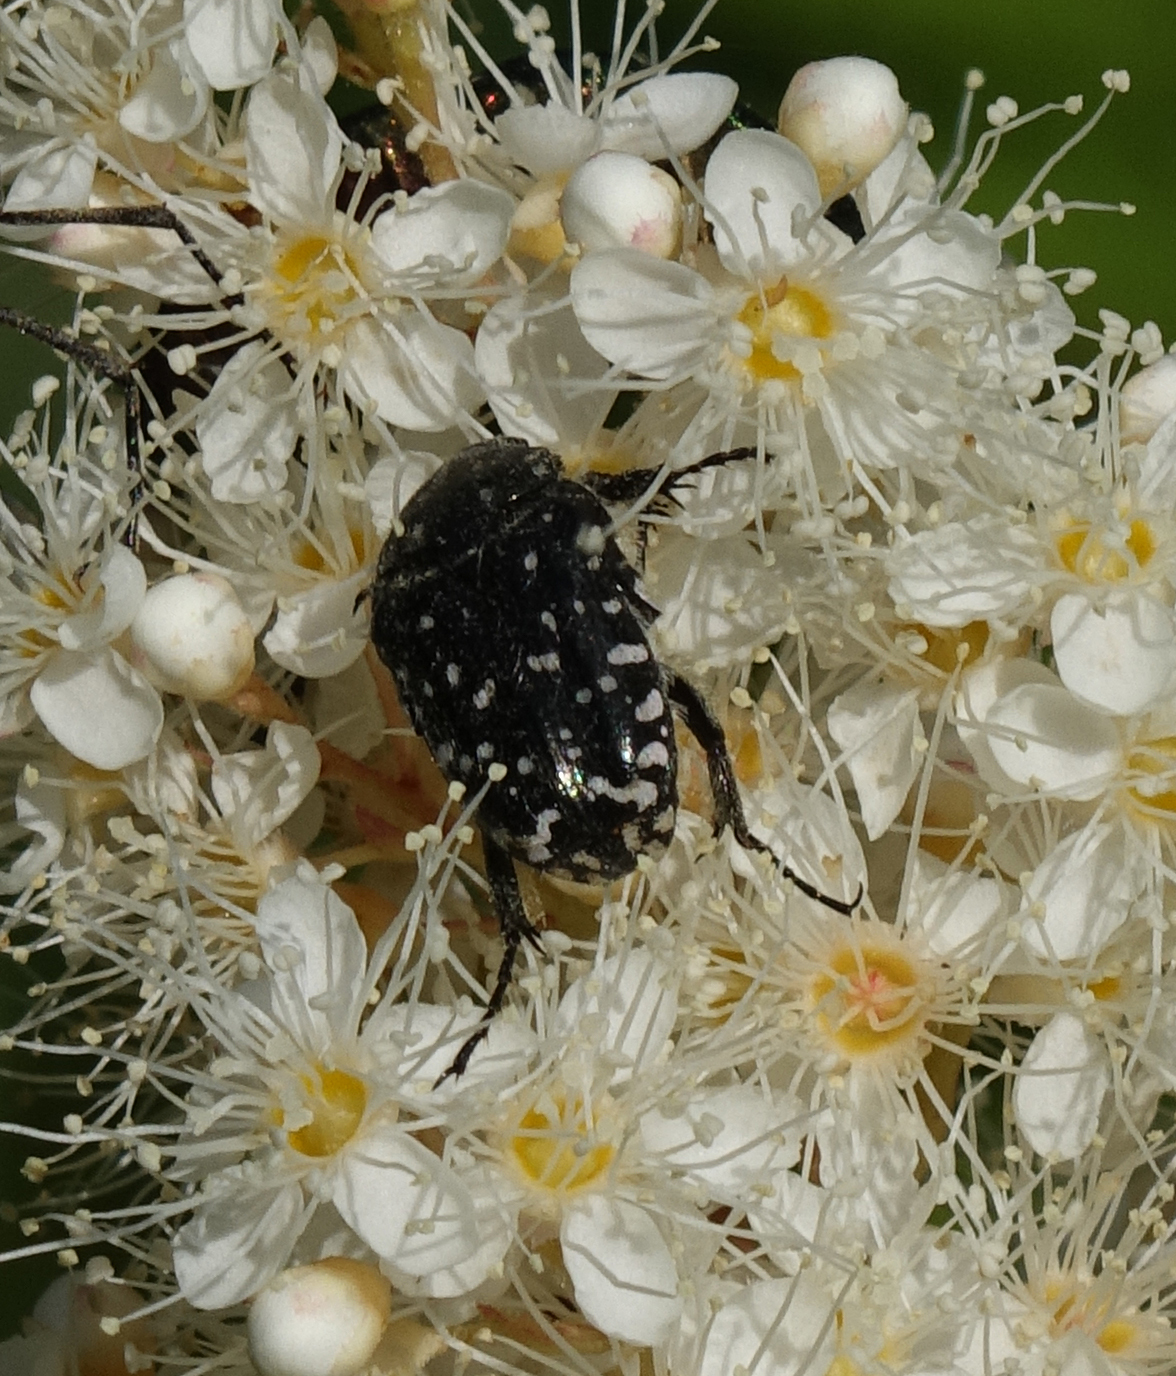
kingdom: Animalia
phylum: Arthropoda
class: Insecta
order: Coleoptera
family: Scarabaeidae
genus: Oxythyrea
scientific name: Oxythyrea funesta
